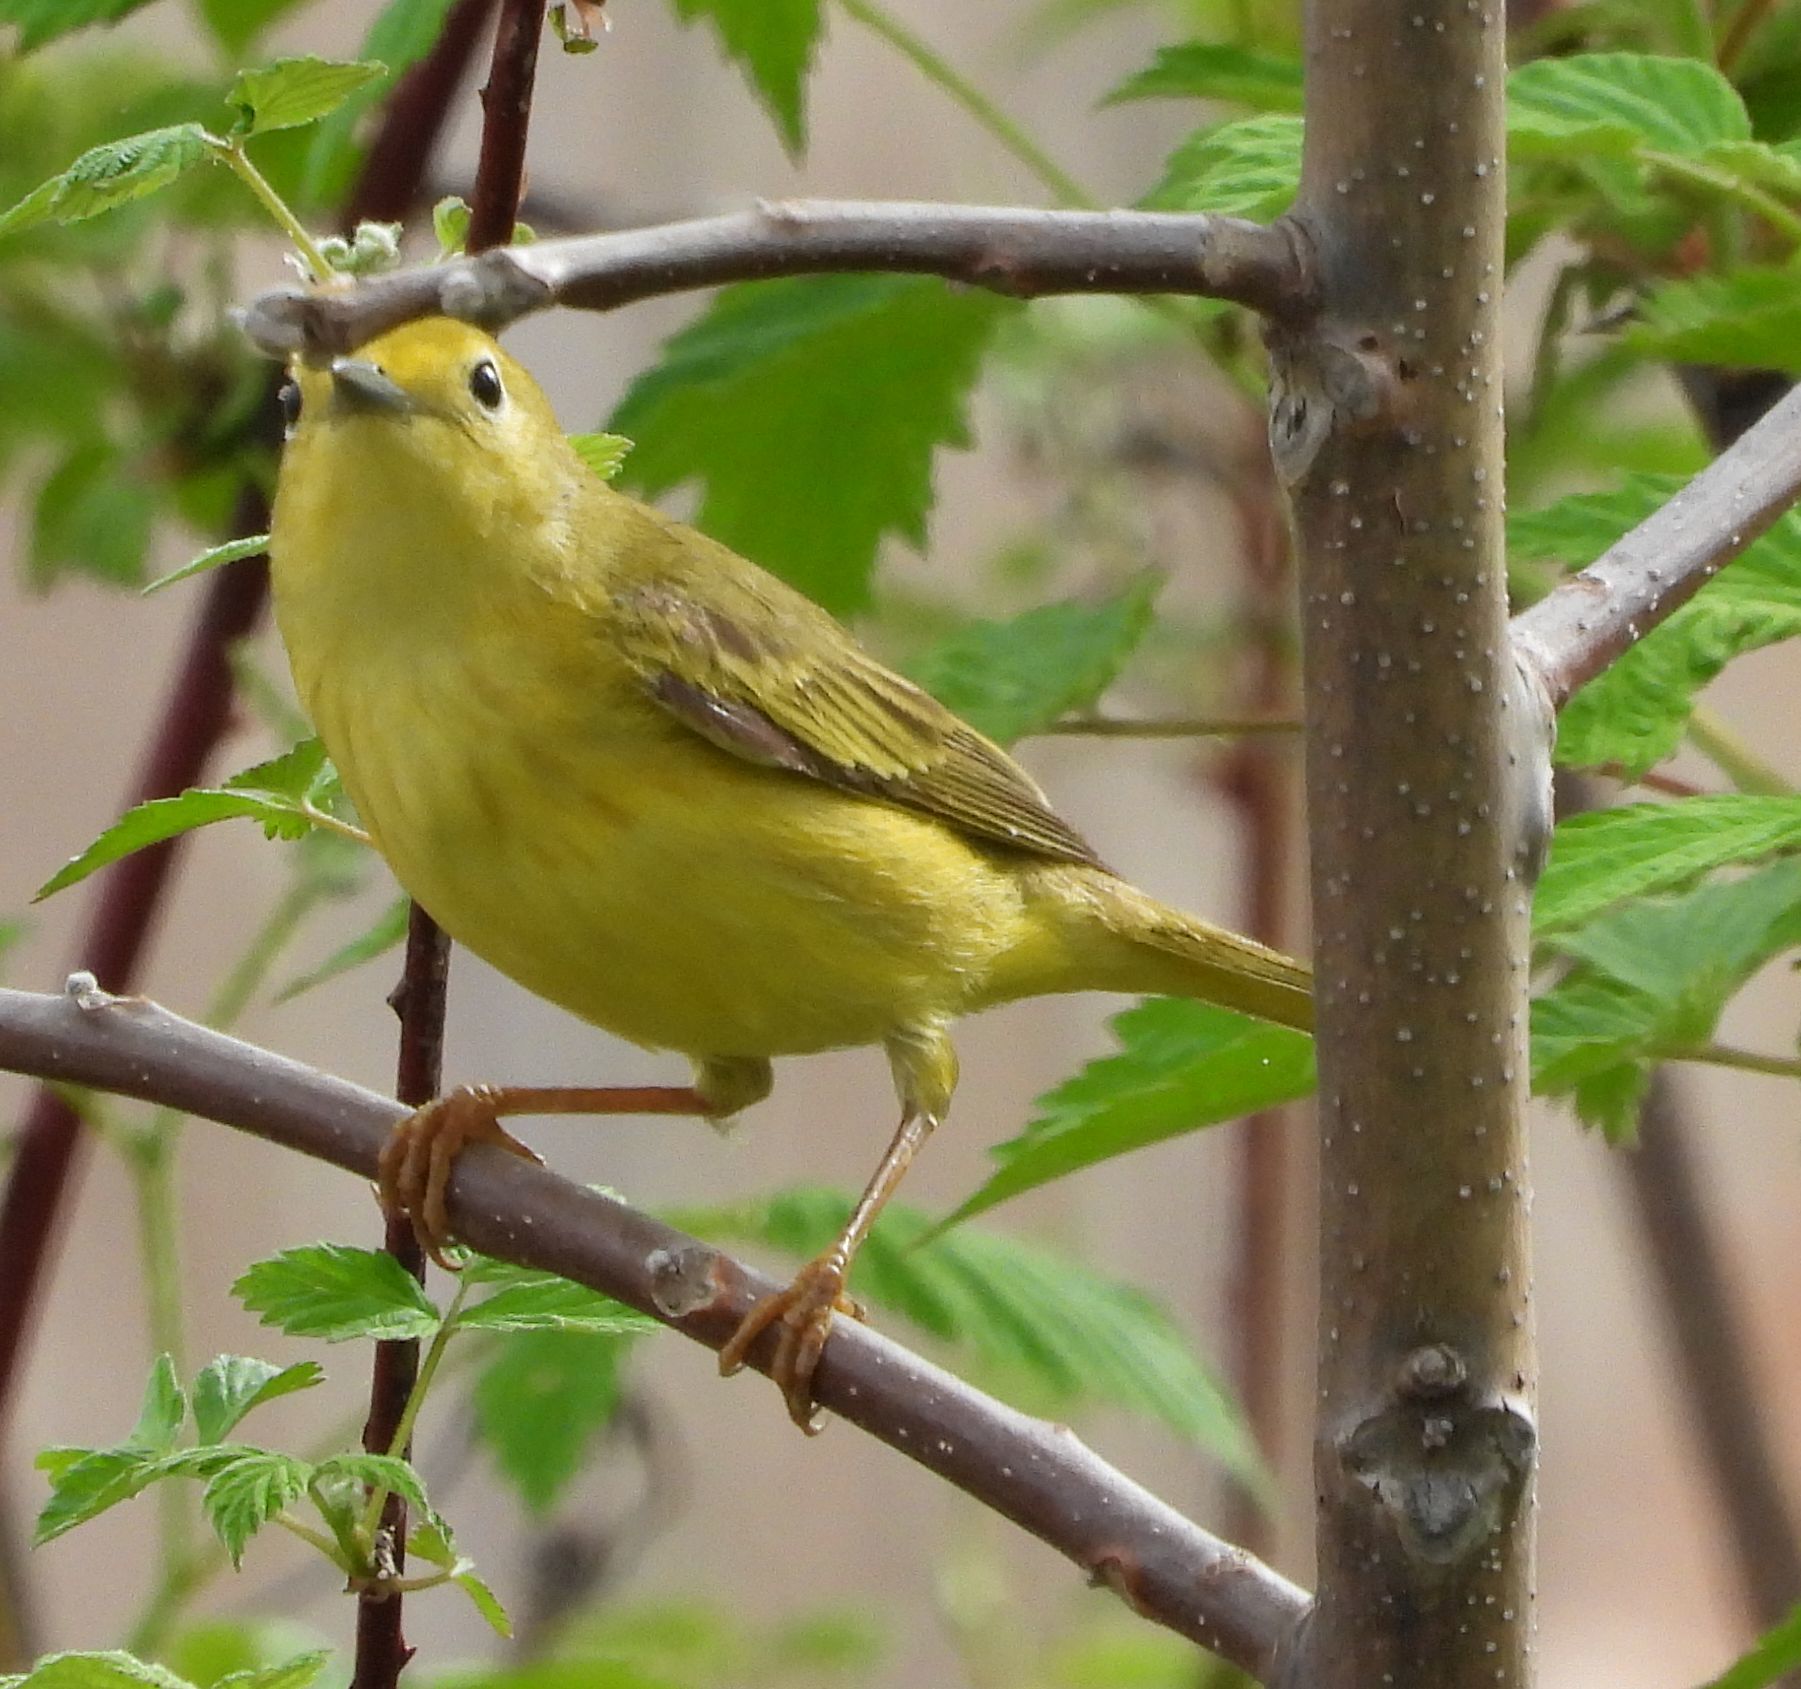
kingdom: Animalia
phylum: Chordata
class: Aves
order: Passeriformes
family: Parulidae
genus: Setophaga
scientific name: Setophaga petechia
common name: Yellow warbler
